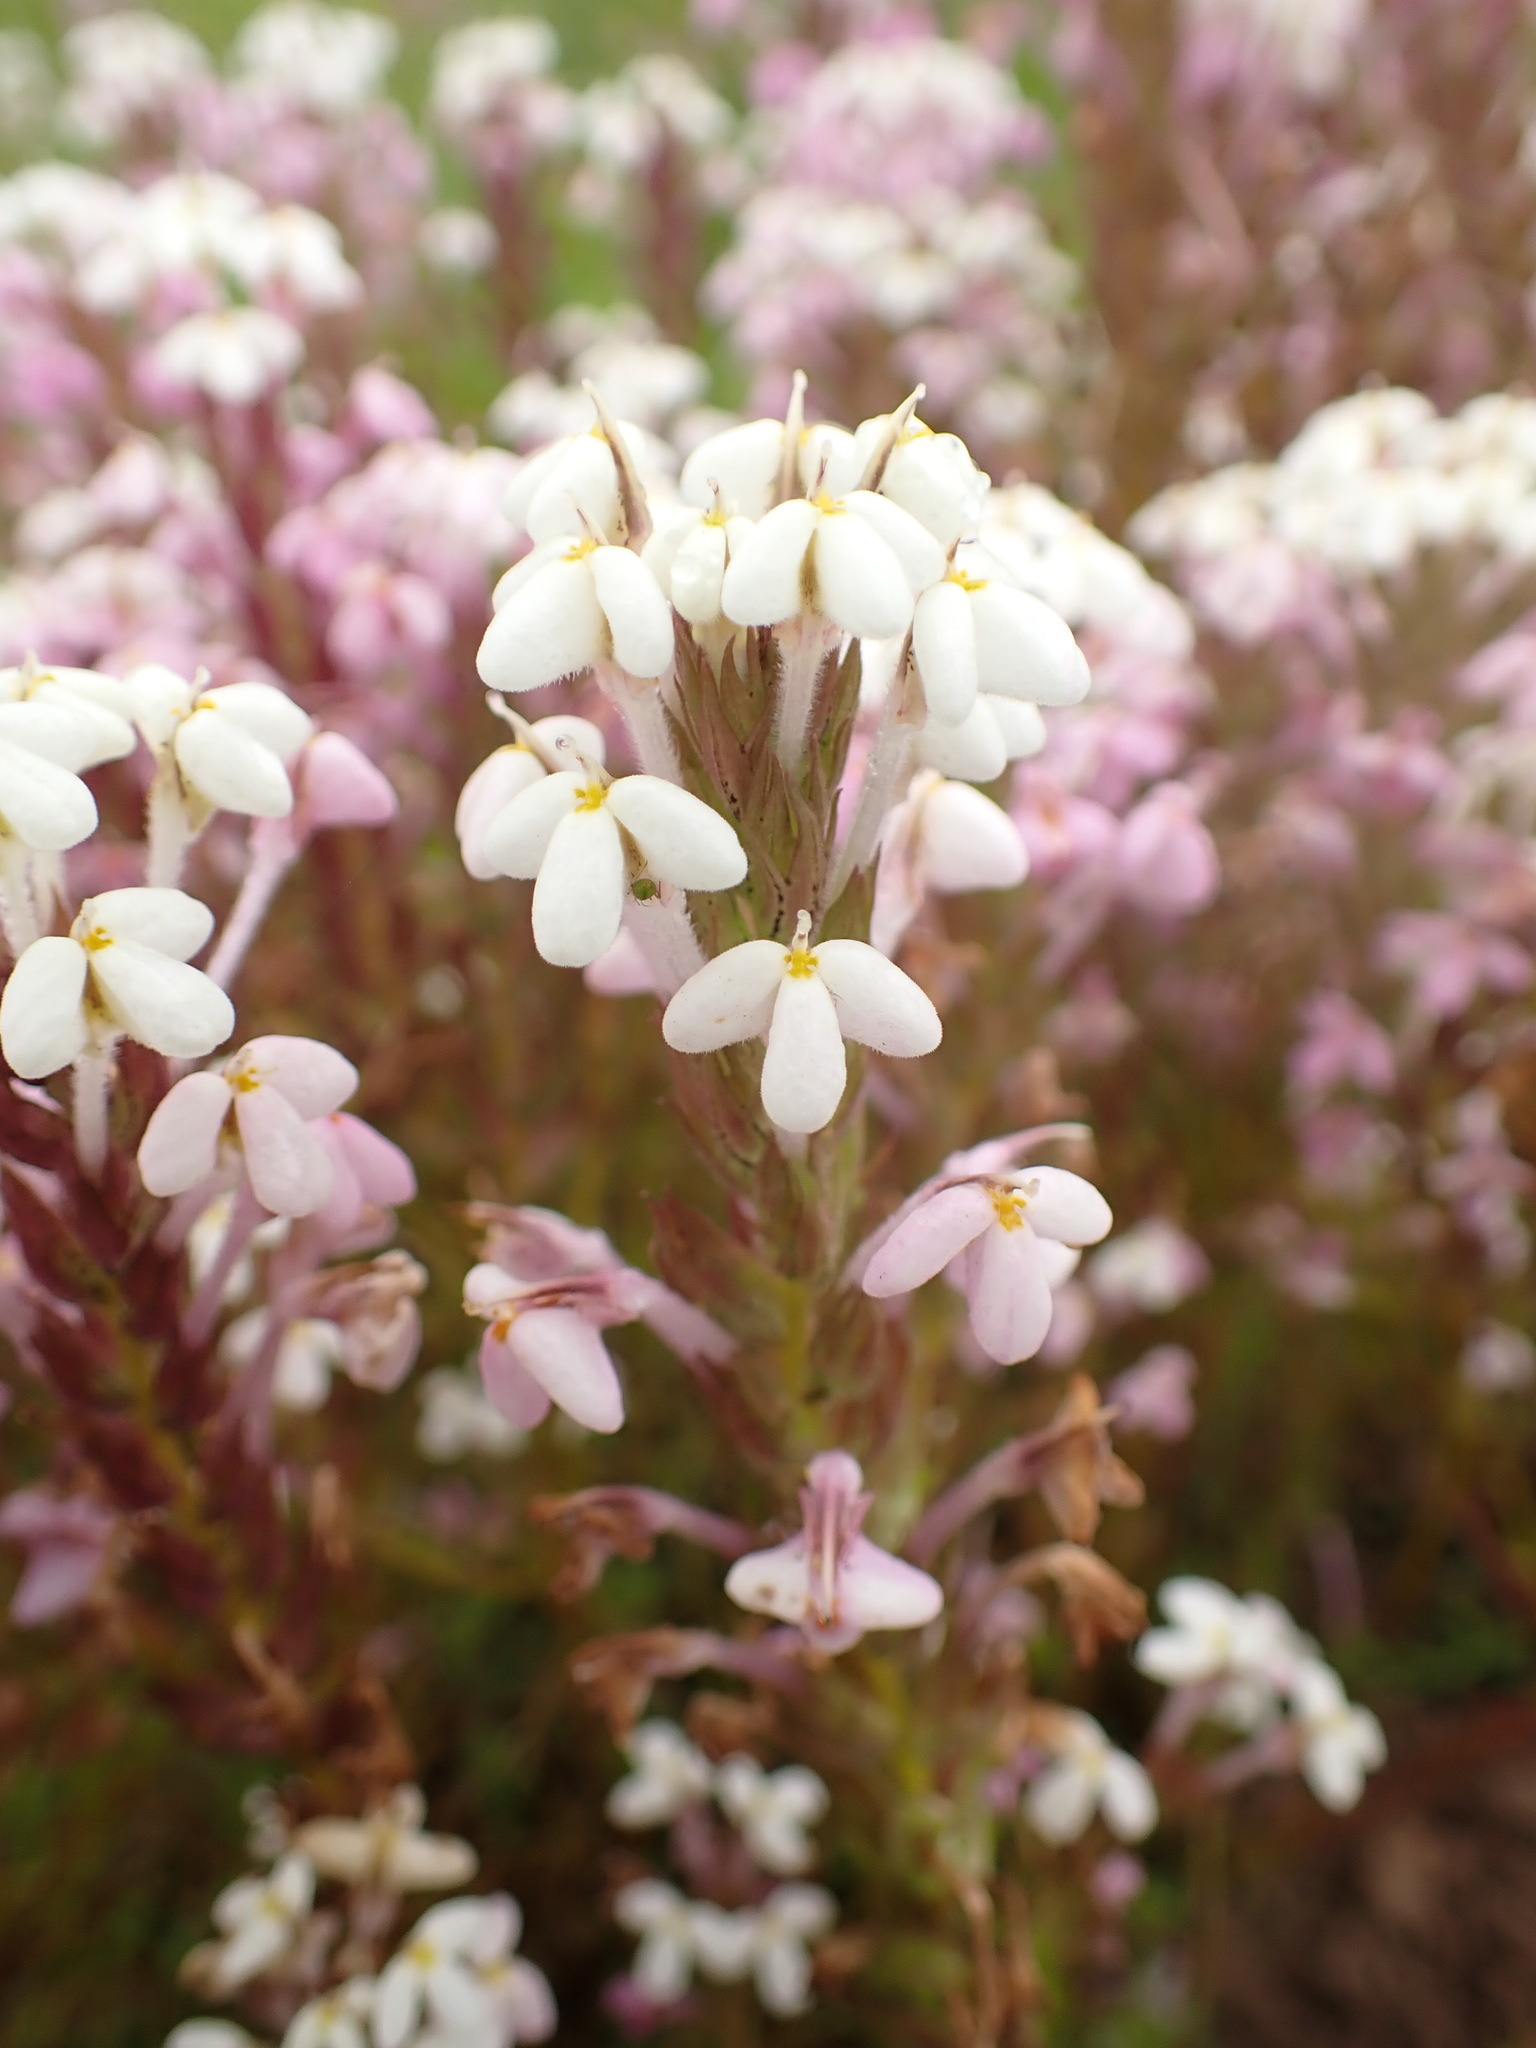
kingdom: Plantae
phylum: Tracheophyta
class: Magnoliopsida
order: Lamiales
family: Orobanchaceae
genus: Triphysaria
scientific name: Triphysaria versicolor
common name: Bearded false owl-clover
